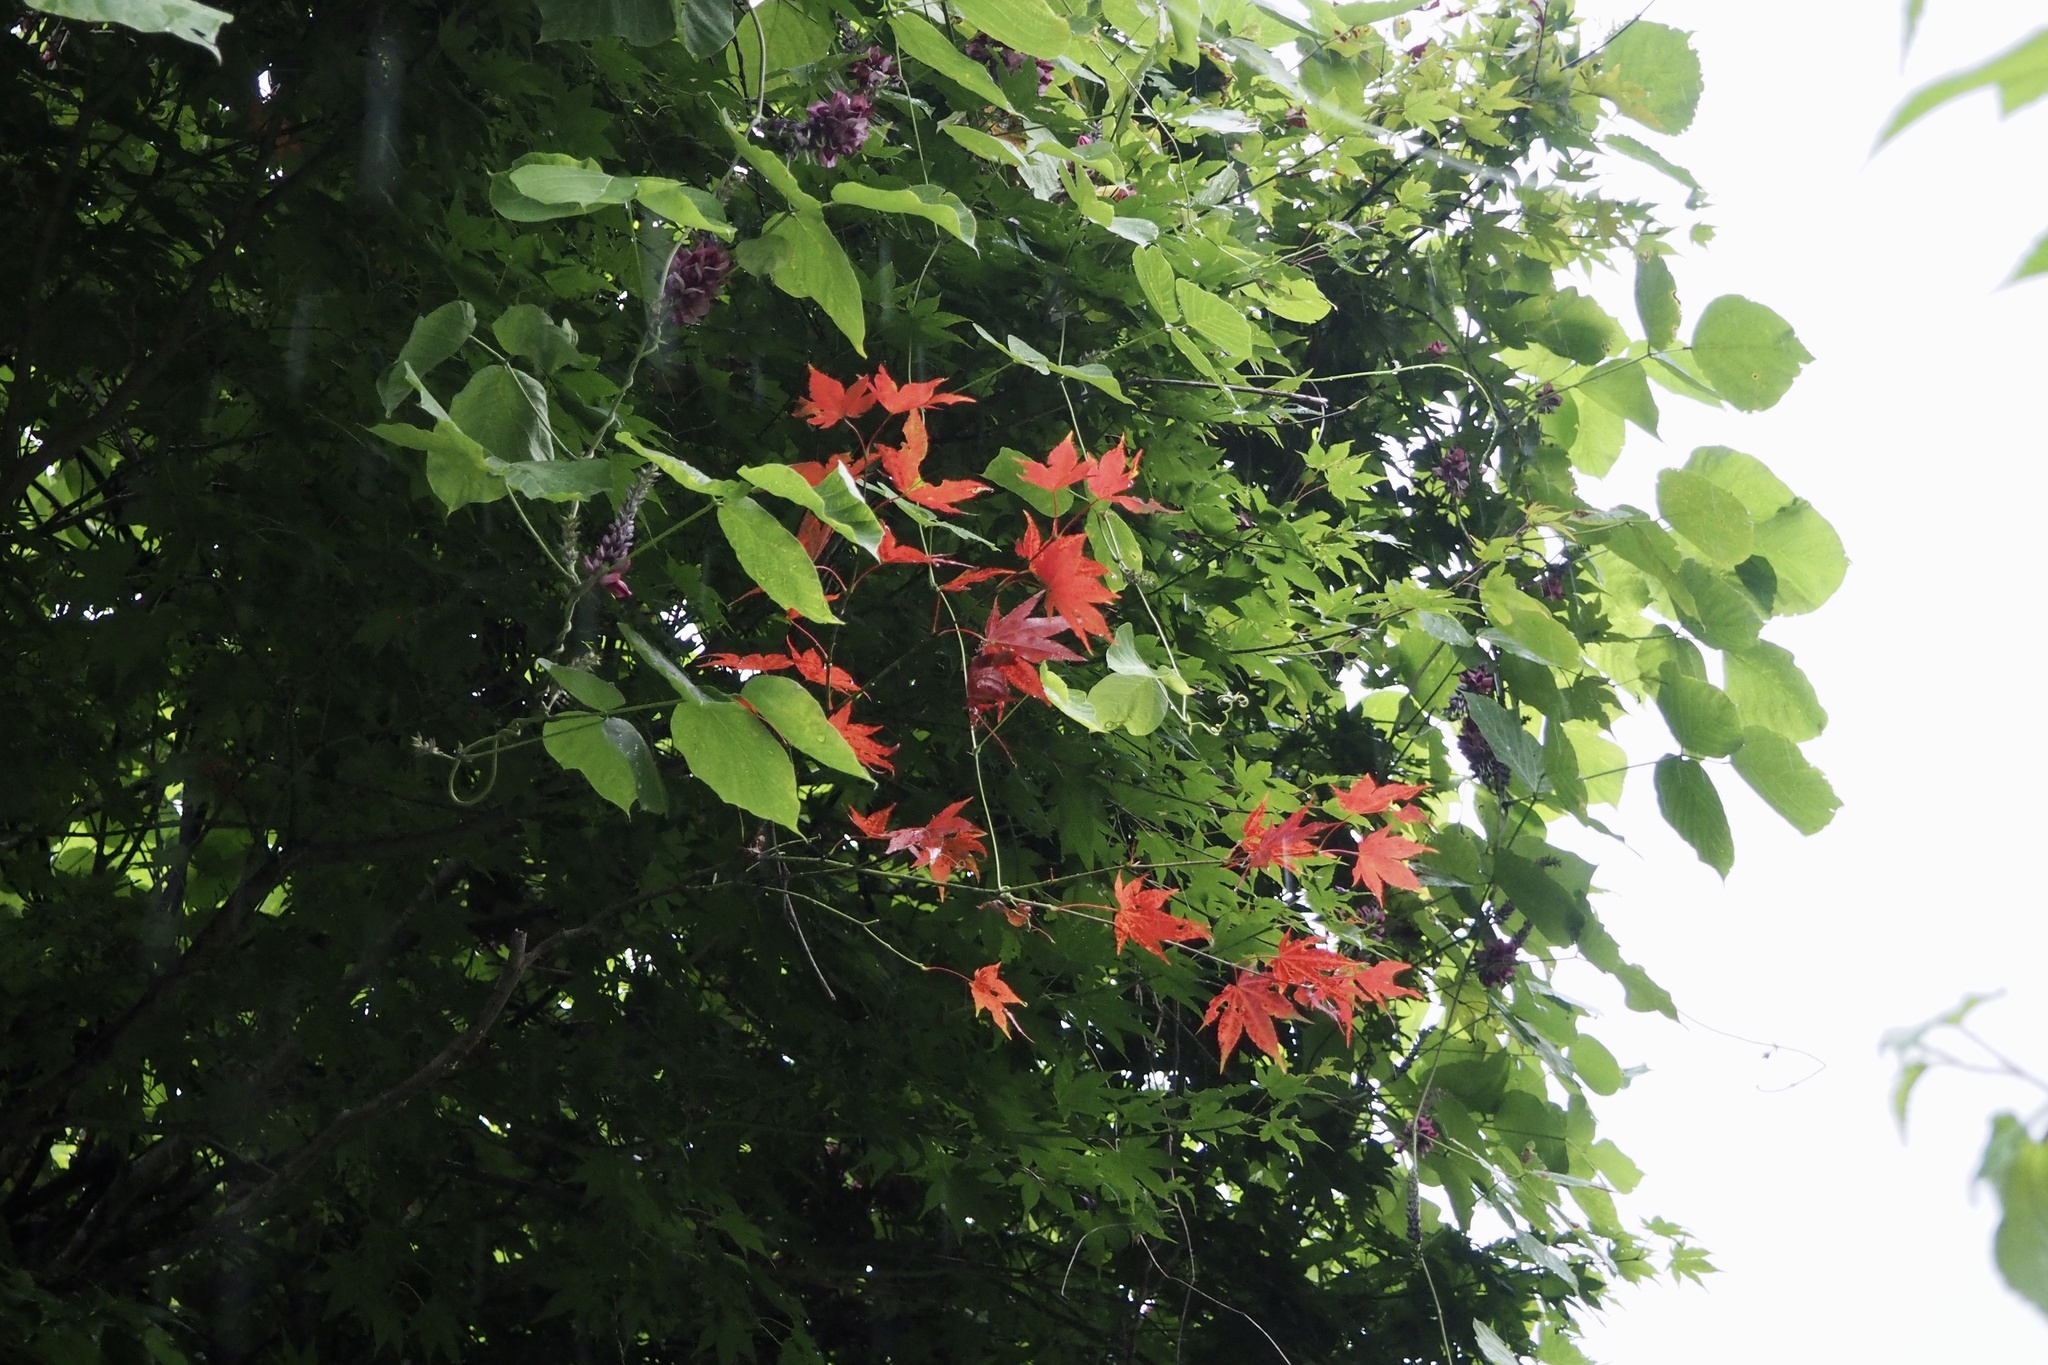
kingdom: Plantae
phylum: Tracheophyta
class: Magnoliopsida
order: Sapindales
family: Sapindaceae
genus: Acer
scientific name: Acer palmatum
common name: Japanese maple
